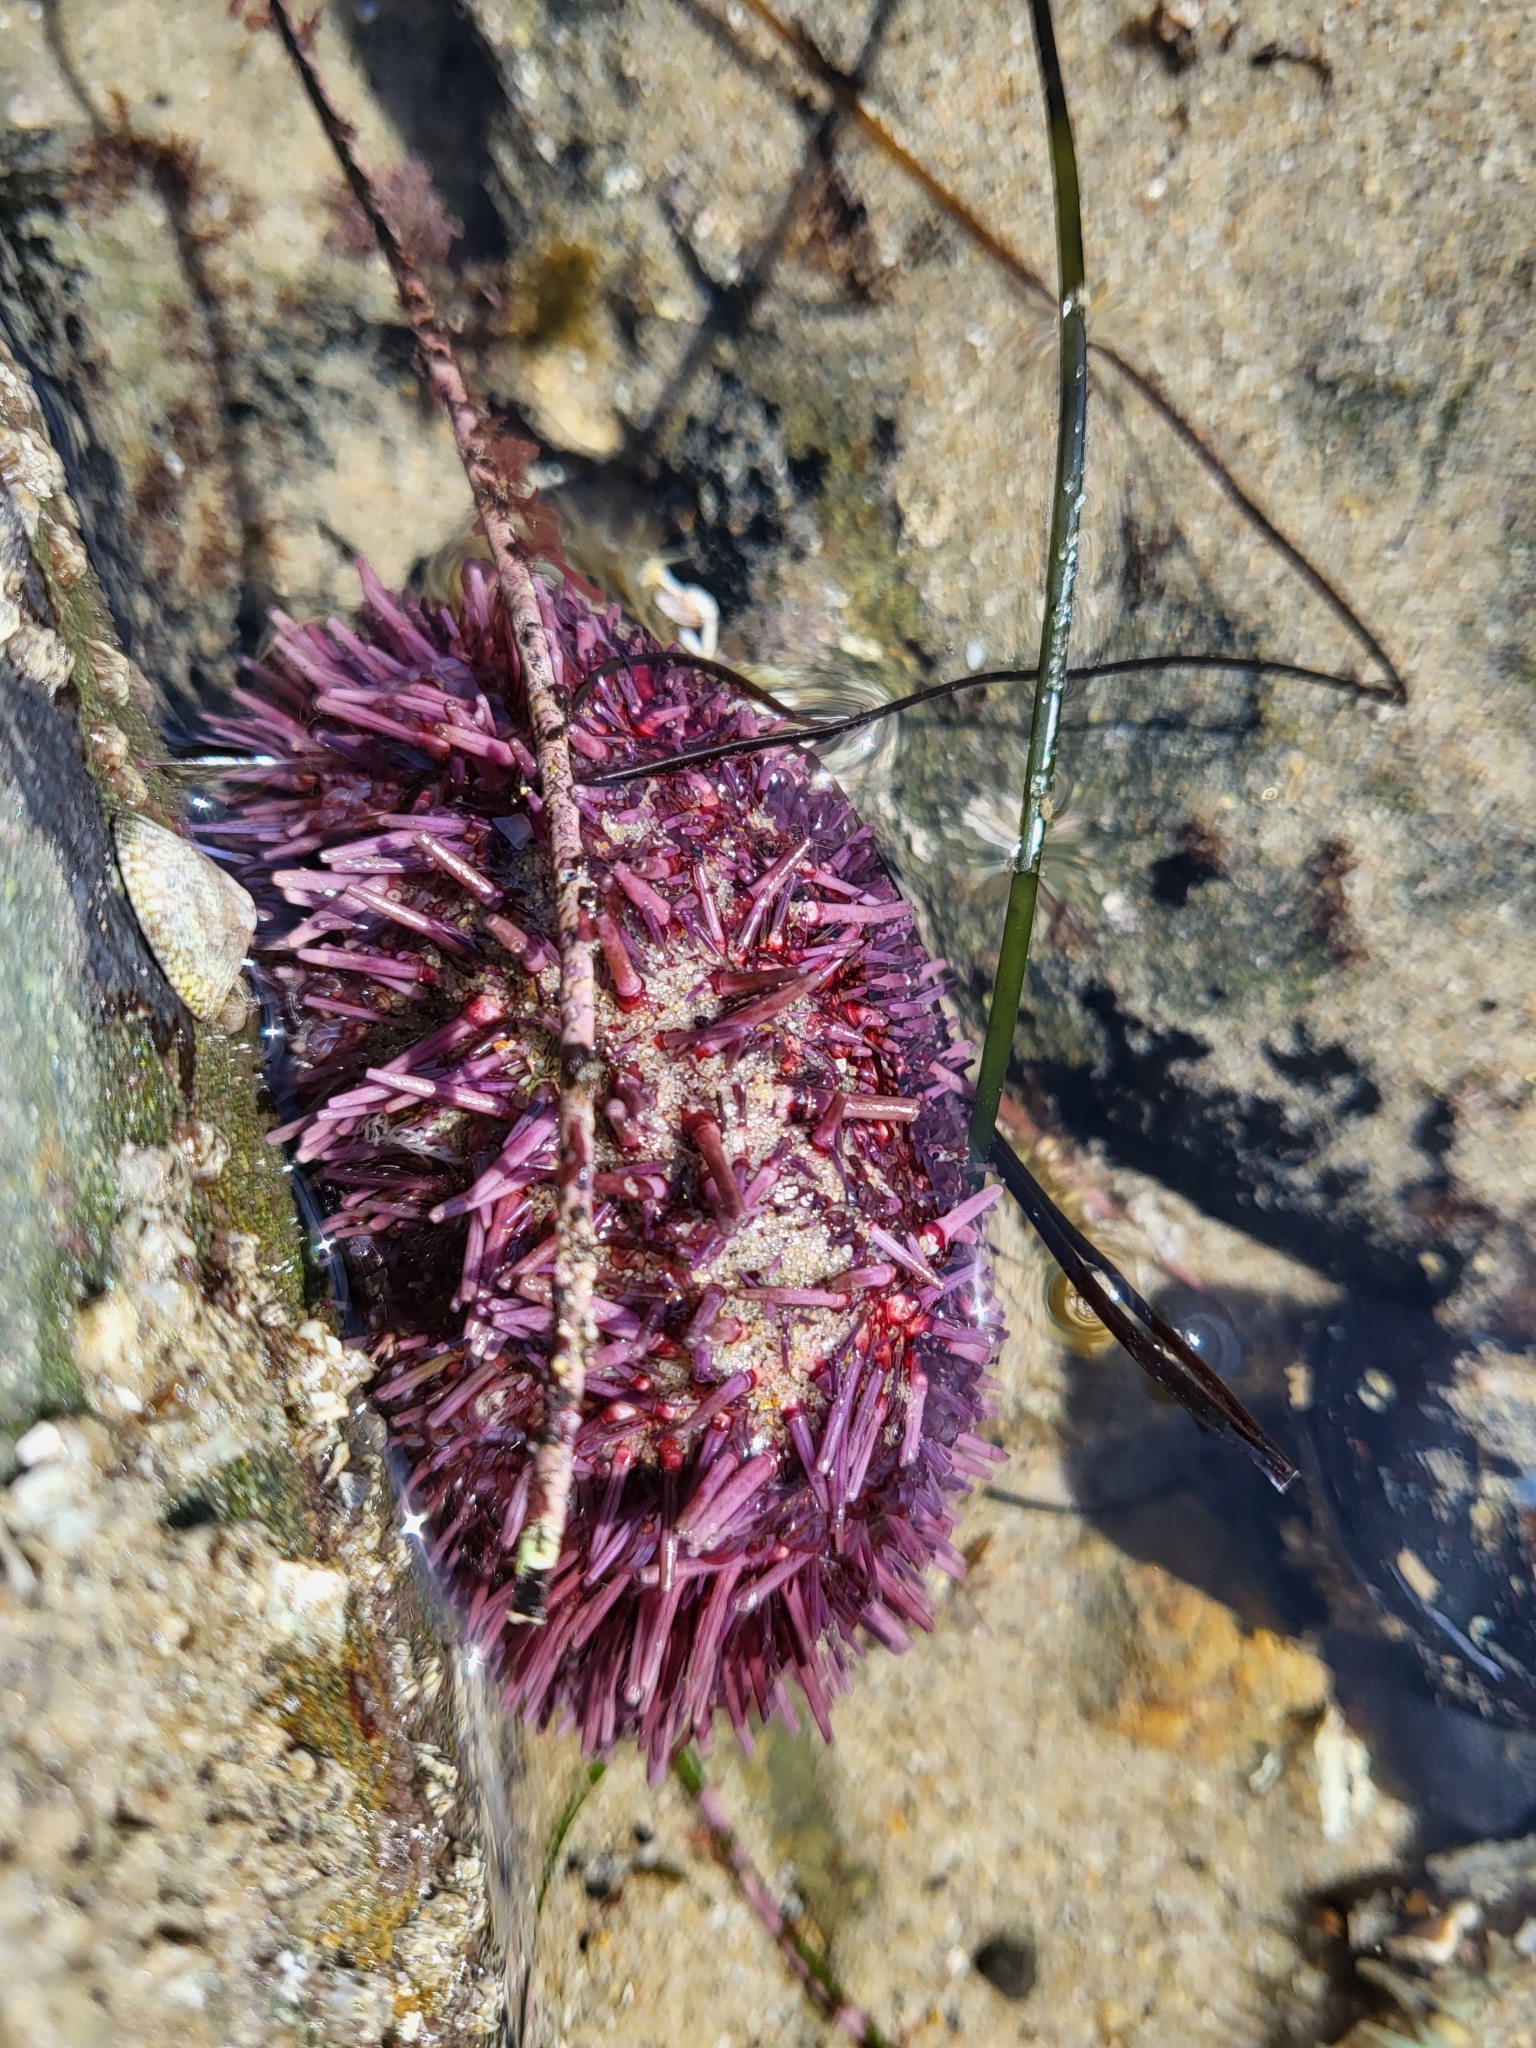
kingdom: Animalia
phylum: Echinodermata
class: Echinoidea
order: Camarodonta
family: Strongylocentrotidae
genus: Strongylocentrotus
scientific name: Strongylocentrotus purpuratus
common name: Purple sea urchin
